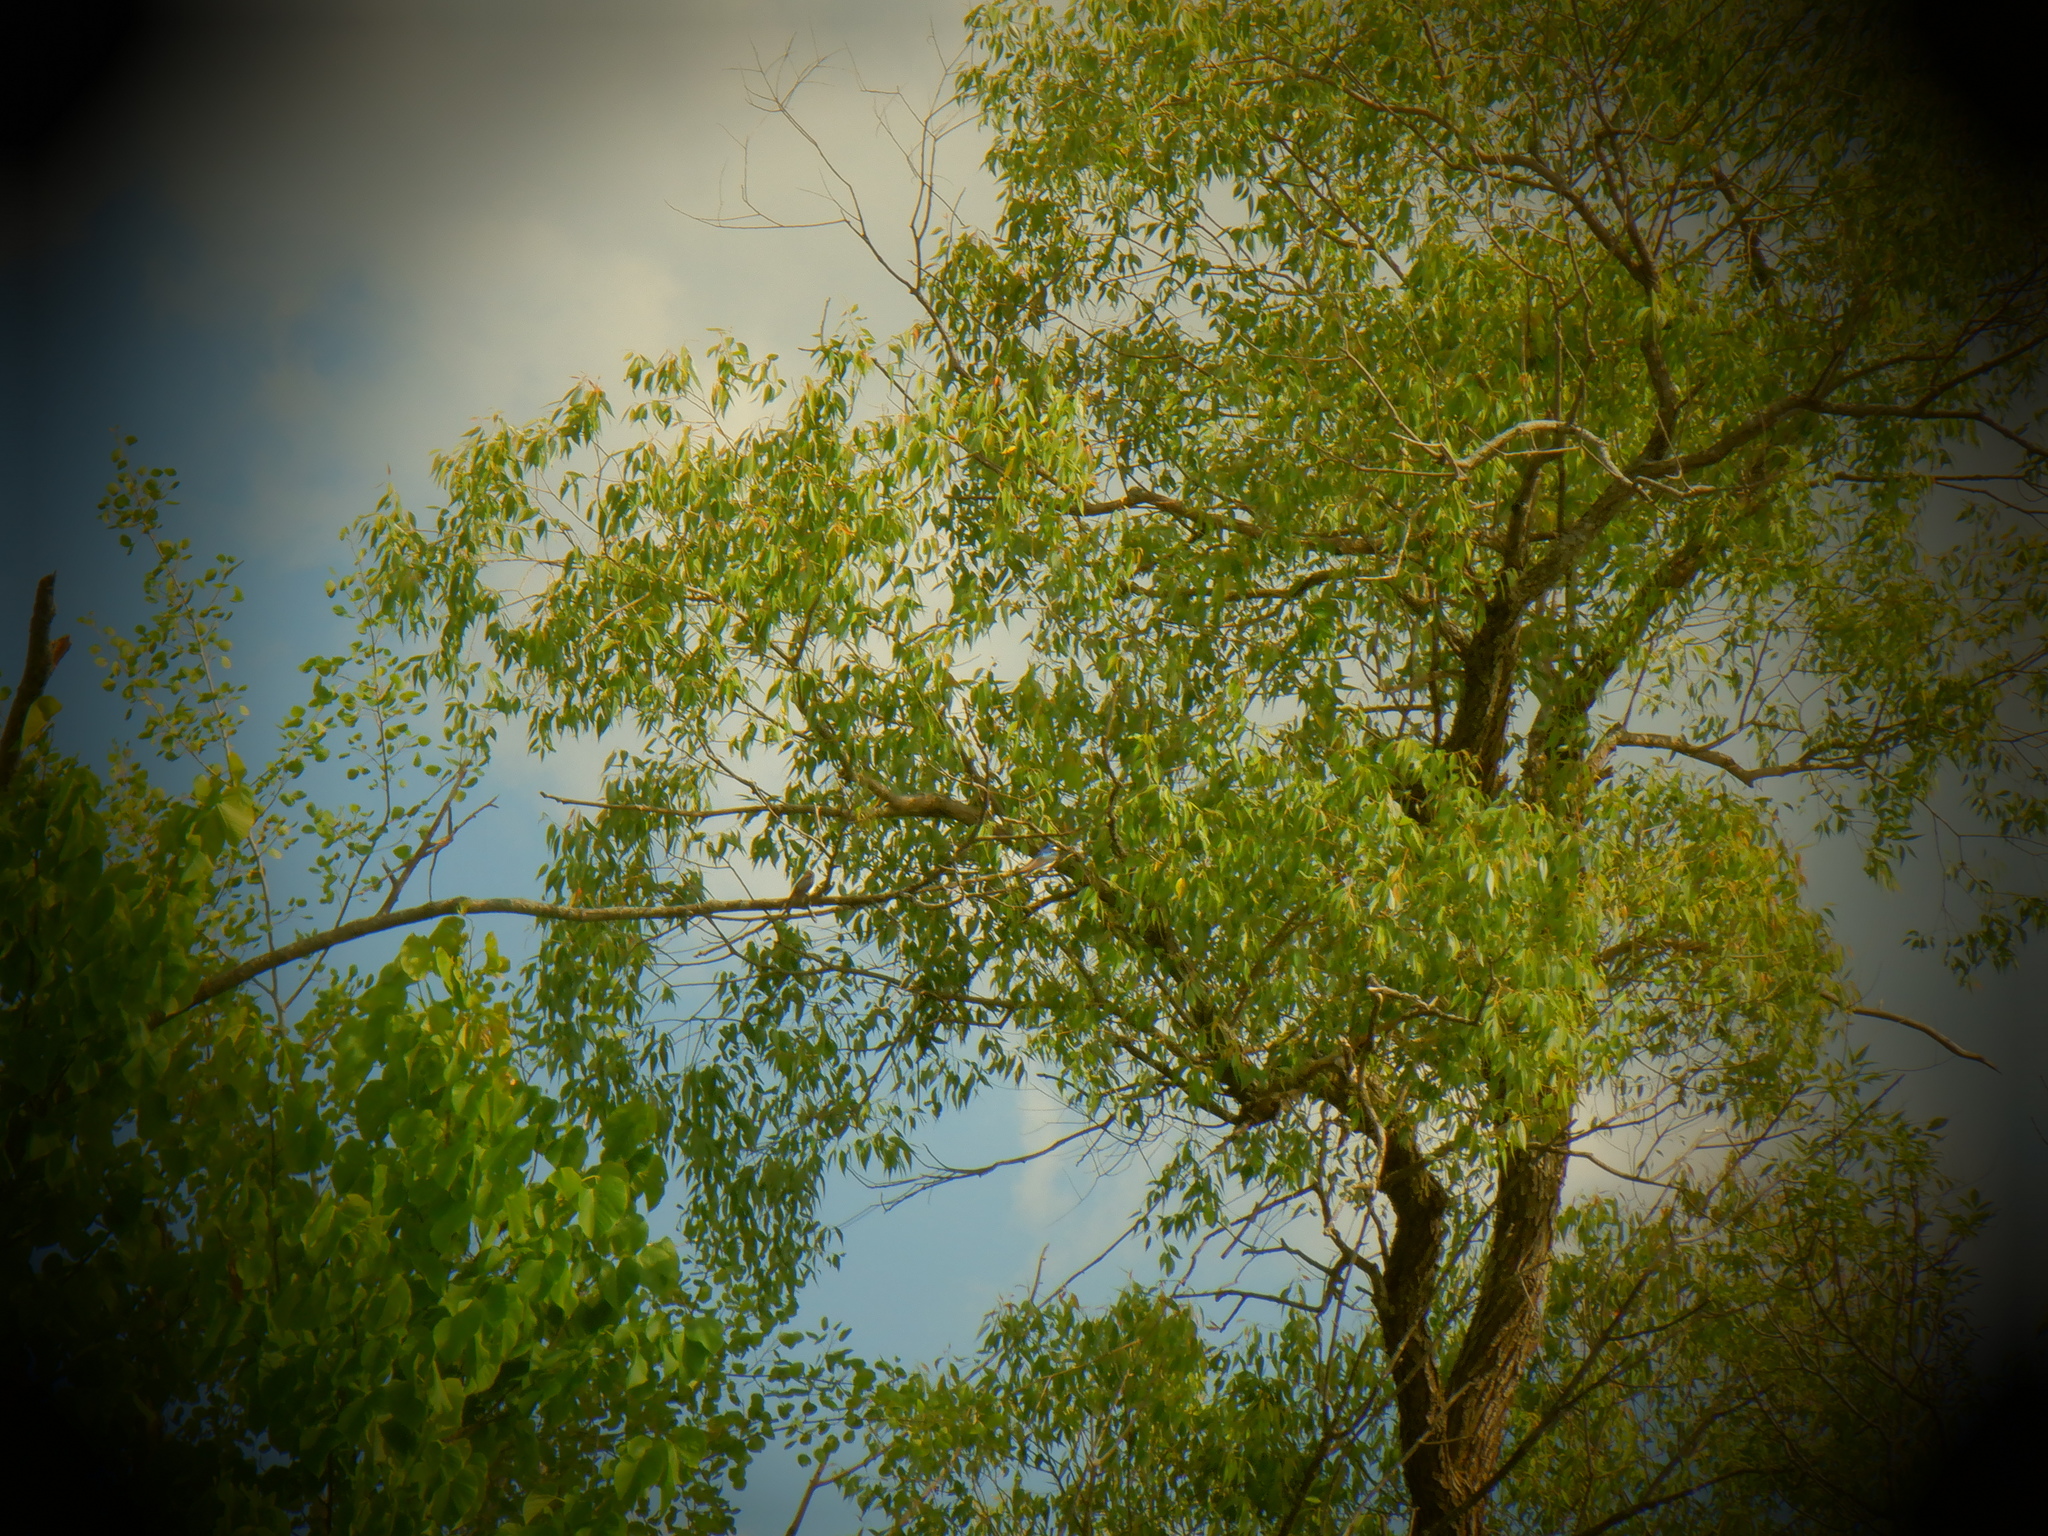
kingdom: Animalia
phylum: Chordata
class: Aves
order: Passeriformes
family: Hirundinidae
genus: Tachycineta
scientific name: Tachycineta bicolor
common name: Tree swallow
